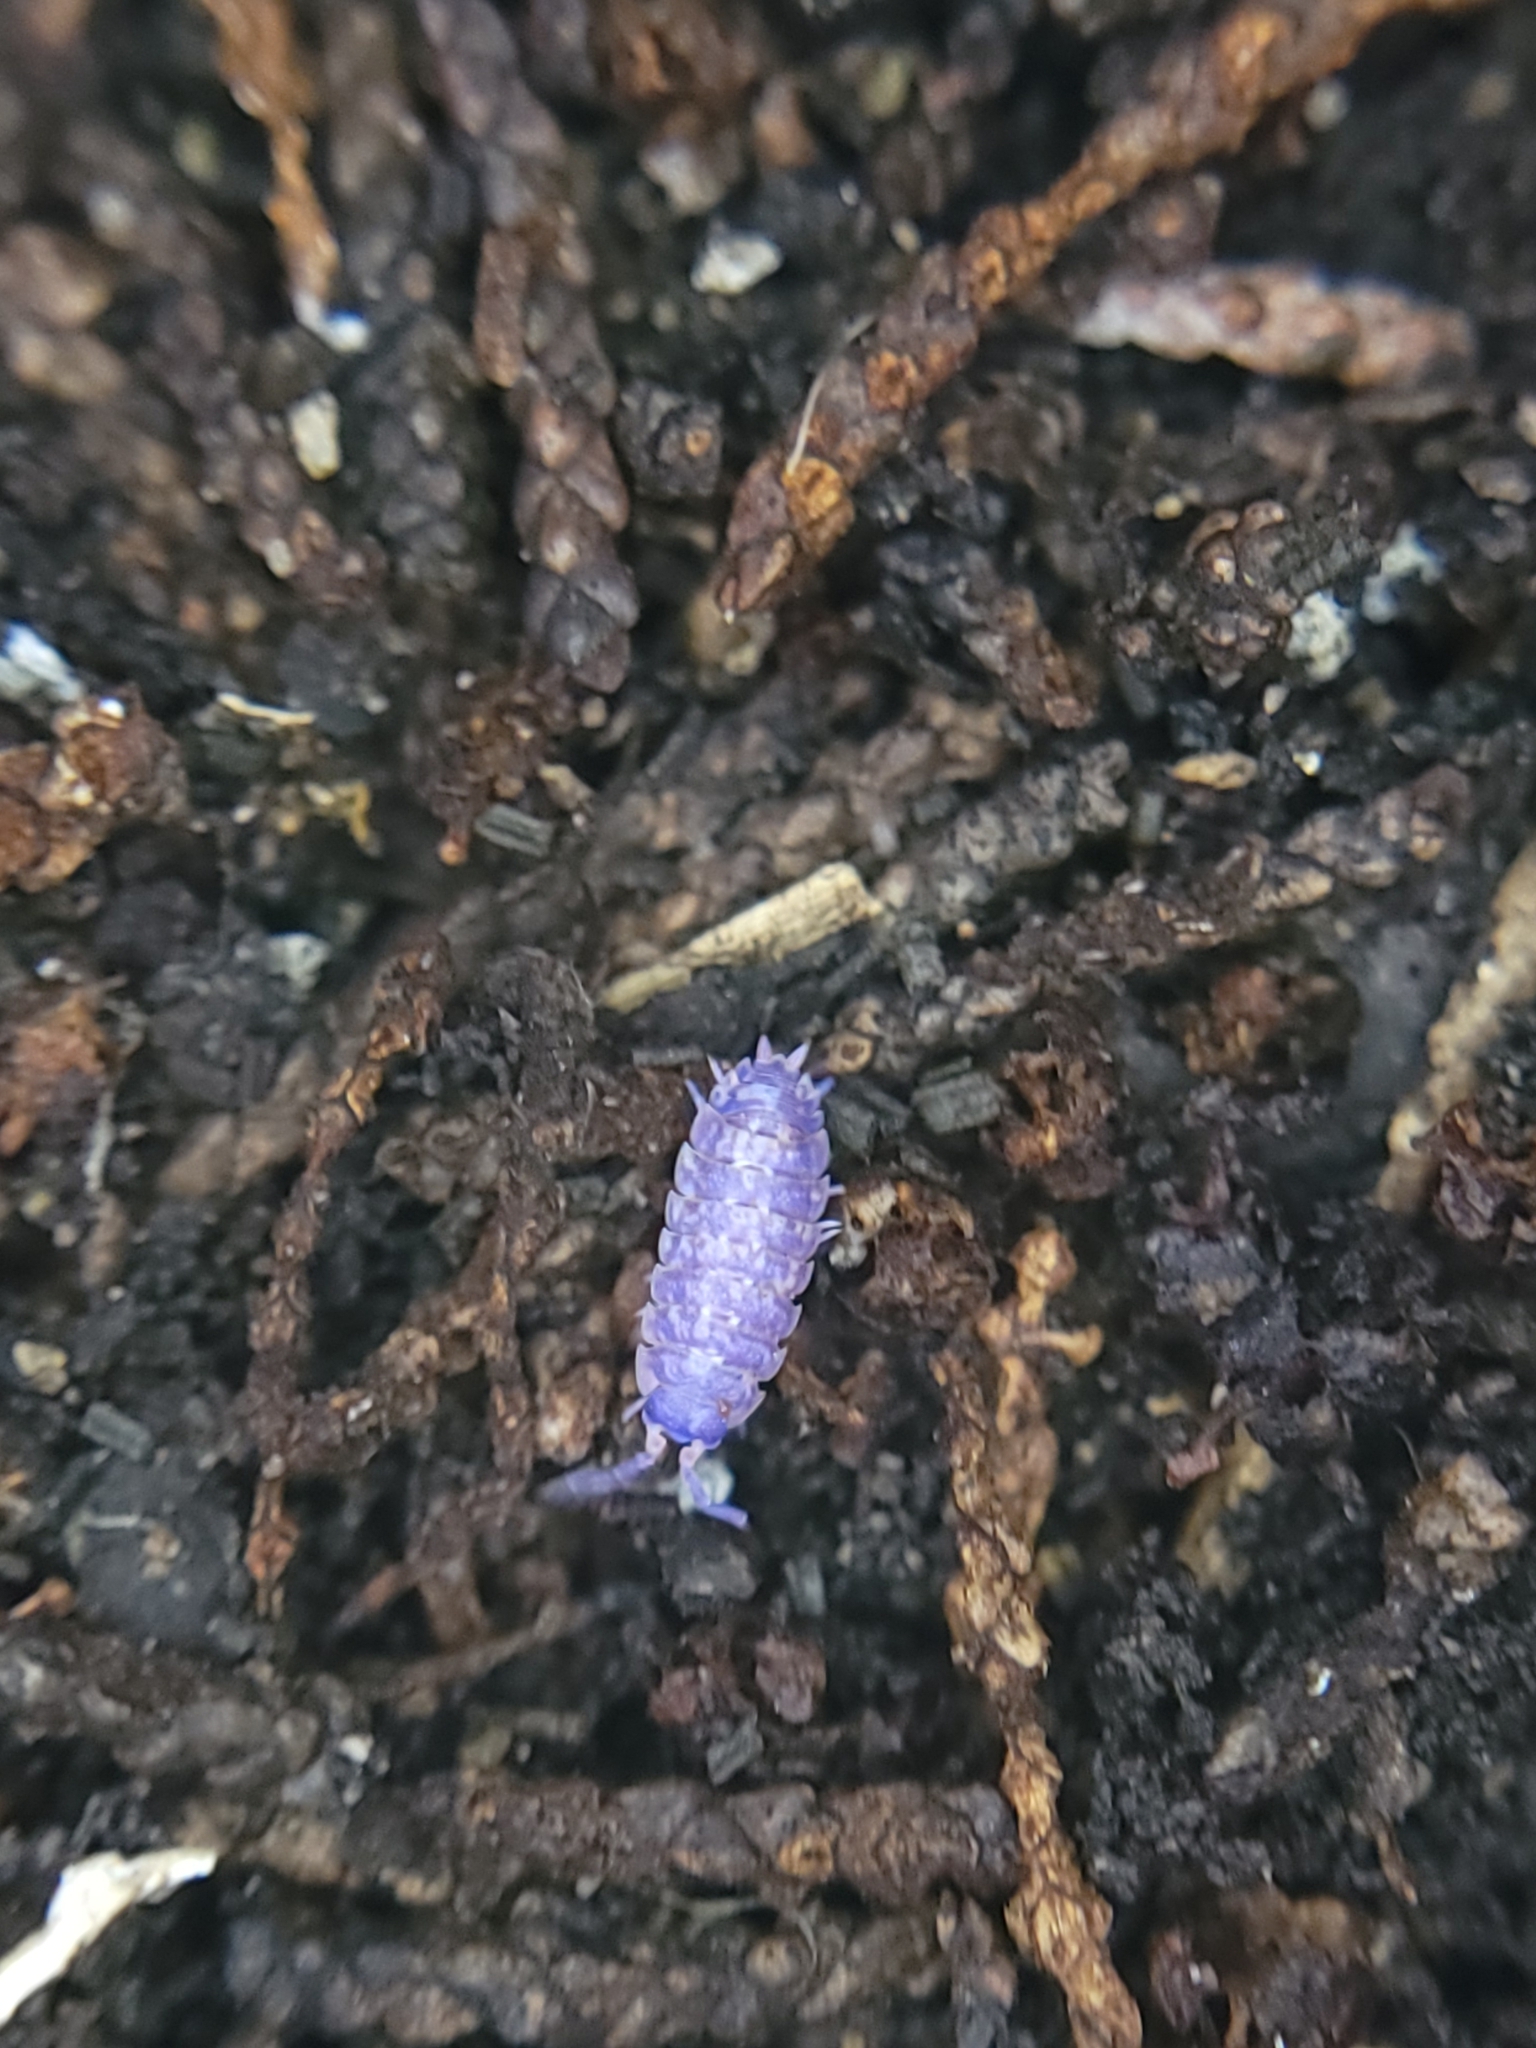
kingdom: Viruses
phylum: Nucleocytoviricota
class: Megaviricetes
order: Pimascovirales
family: Iridoviridae
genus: Iridovirus
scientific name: Iridovirus Invertebrate iridescent virus 31
